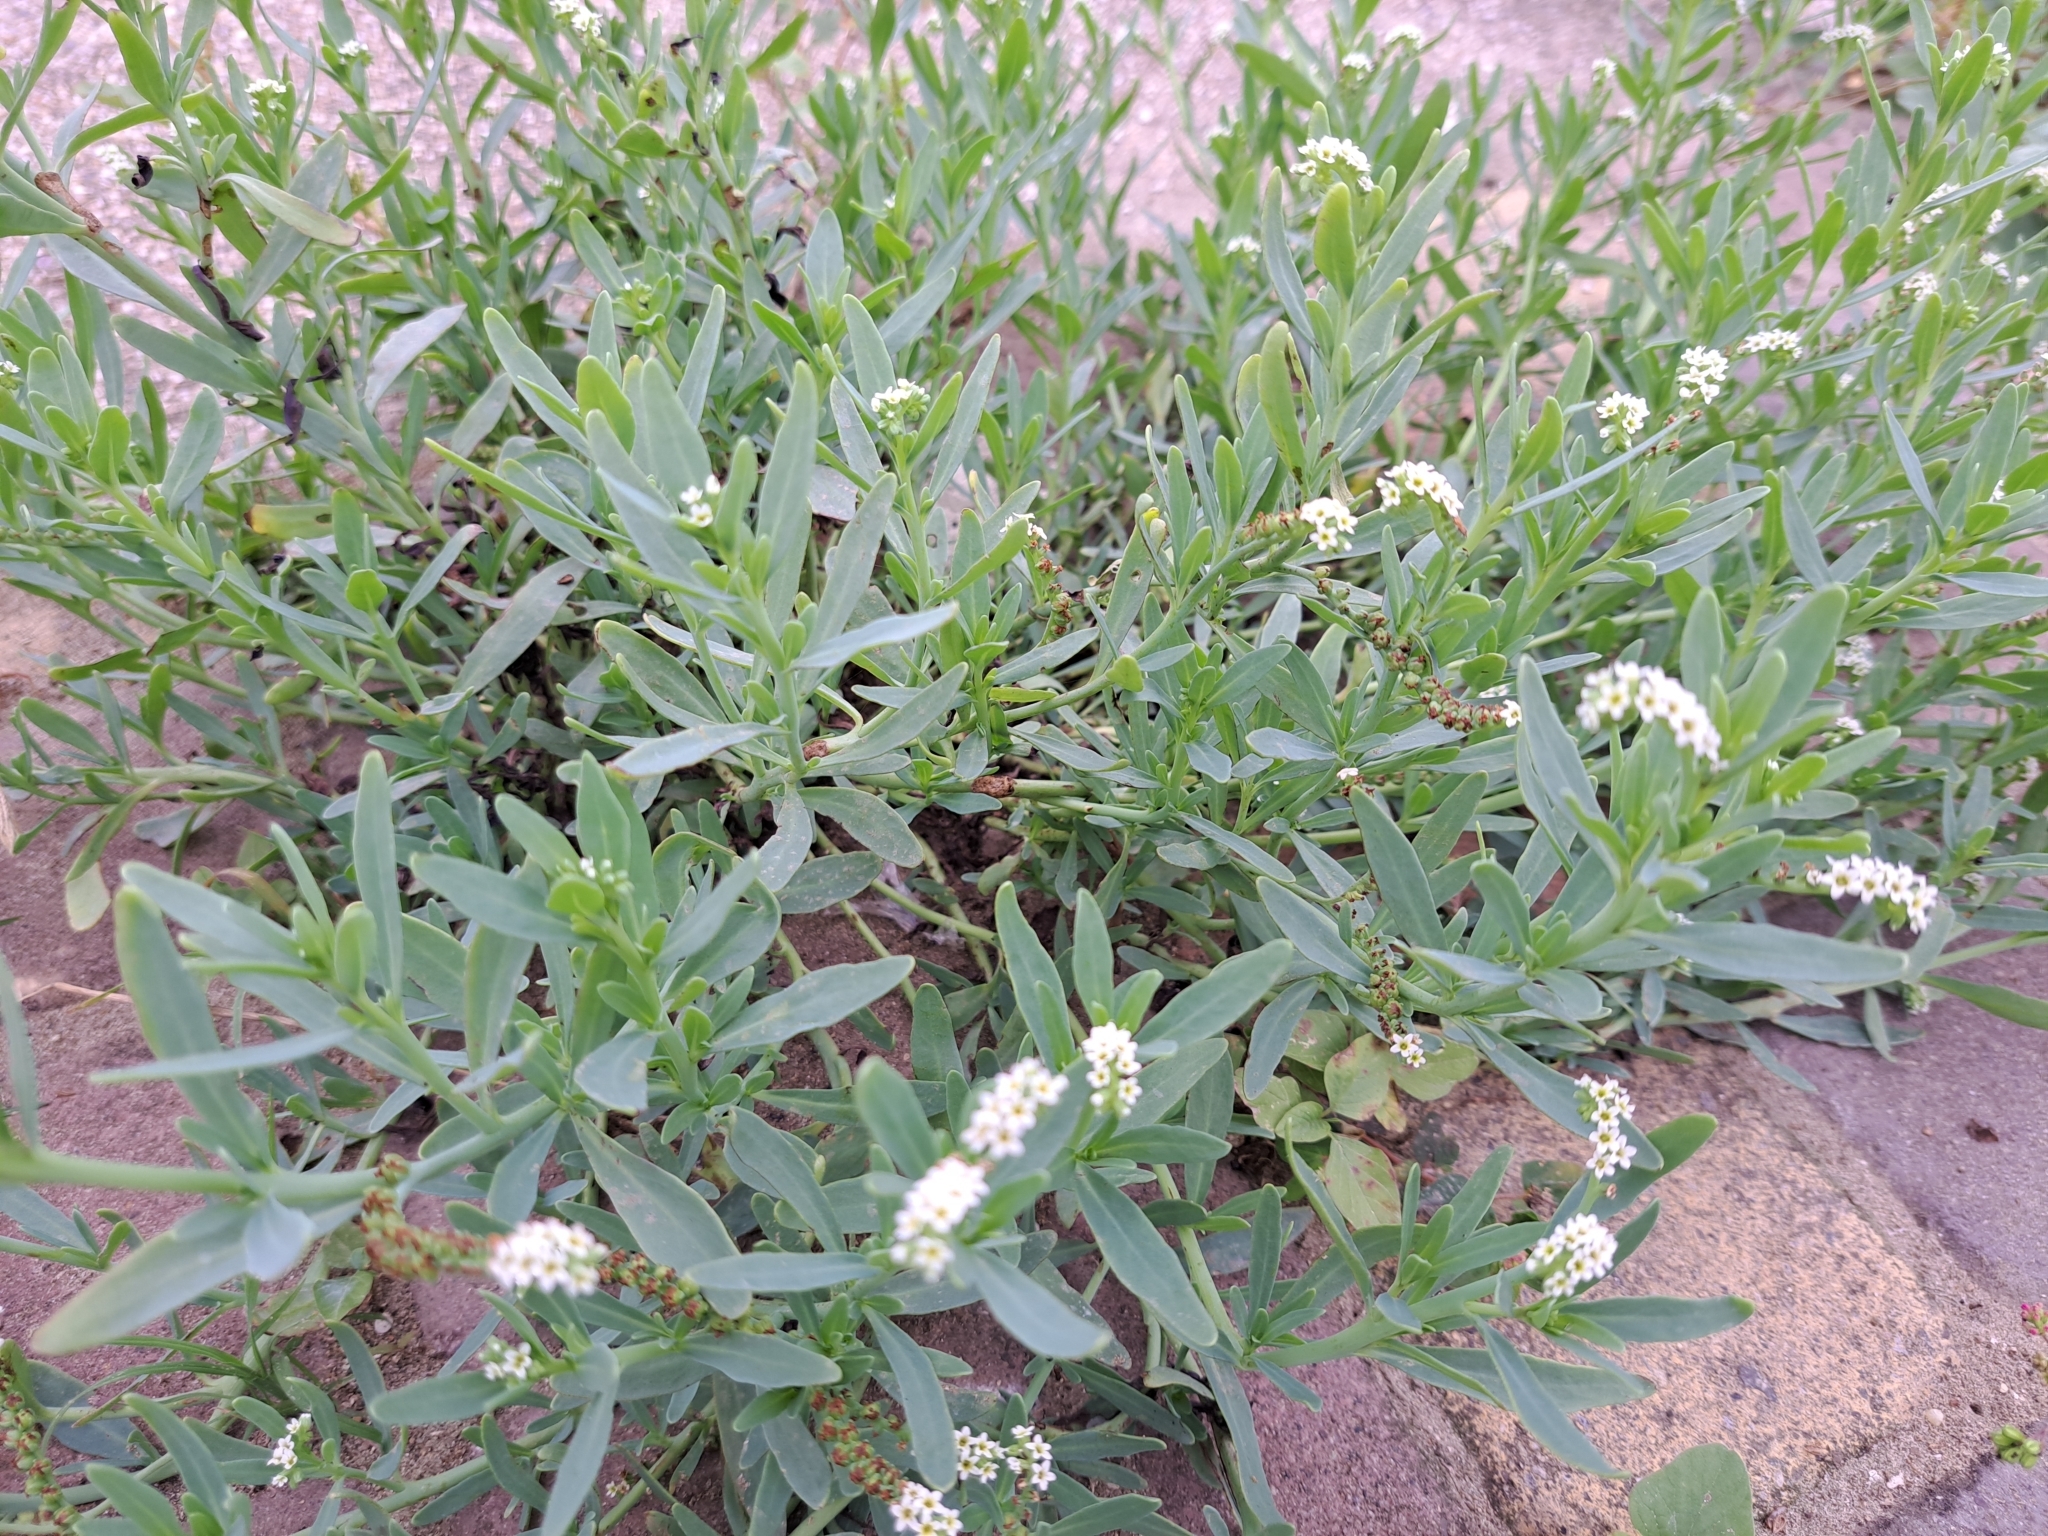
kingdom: Plantae
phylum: Tracheophyta
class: Magnoliopsida
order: Boraginales
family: Heliotropiaceae
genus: Heliotropium
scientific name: Heliotropium curassavicum
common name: Seaside heliotrope
